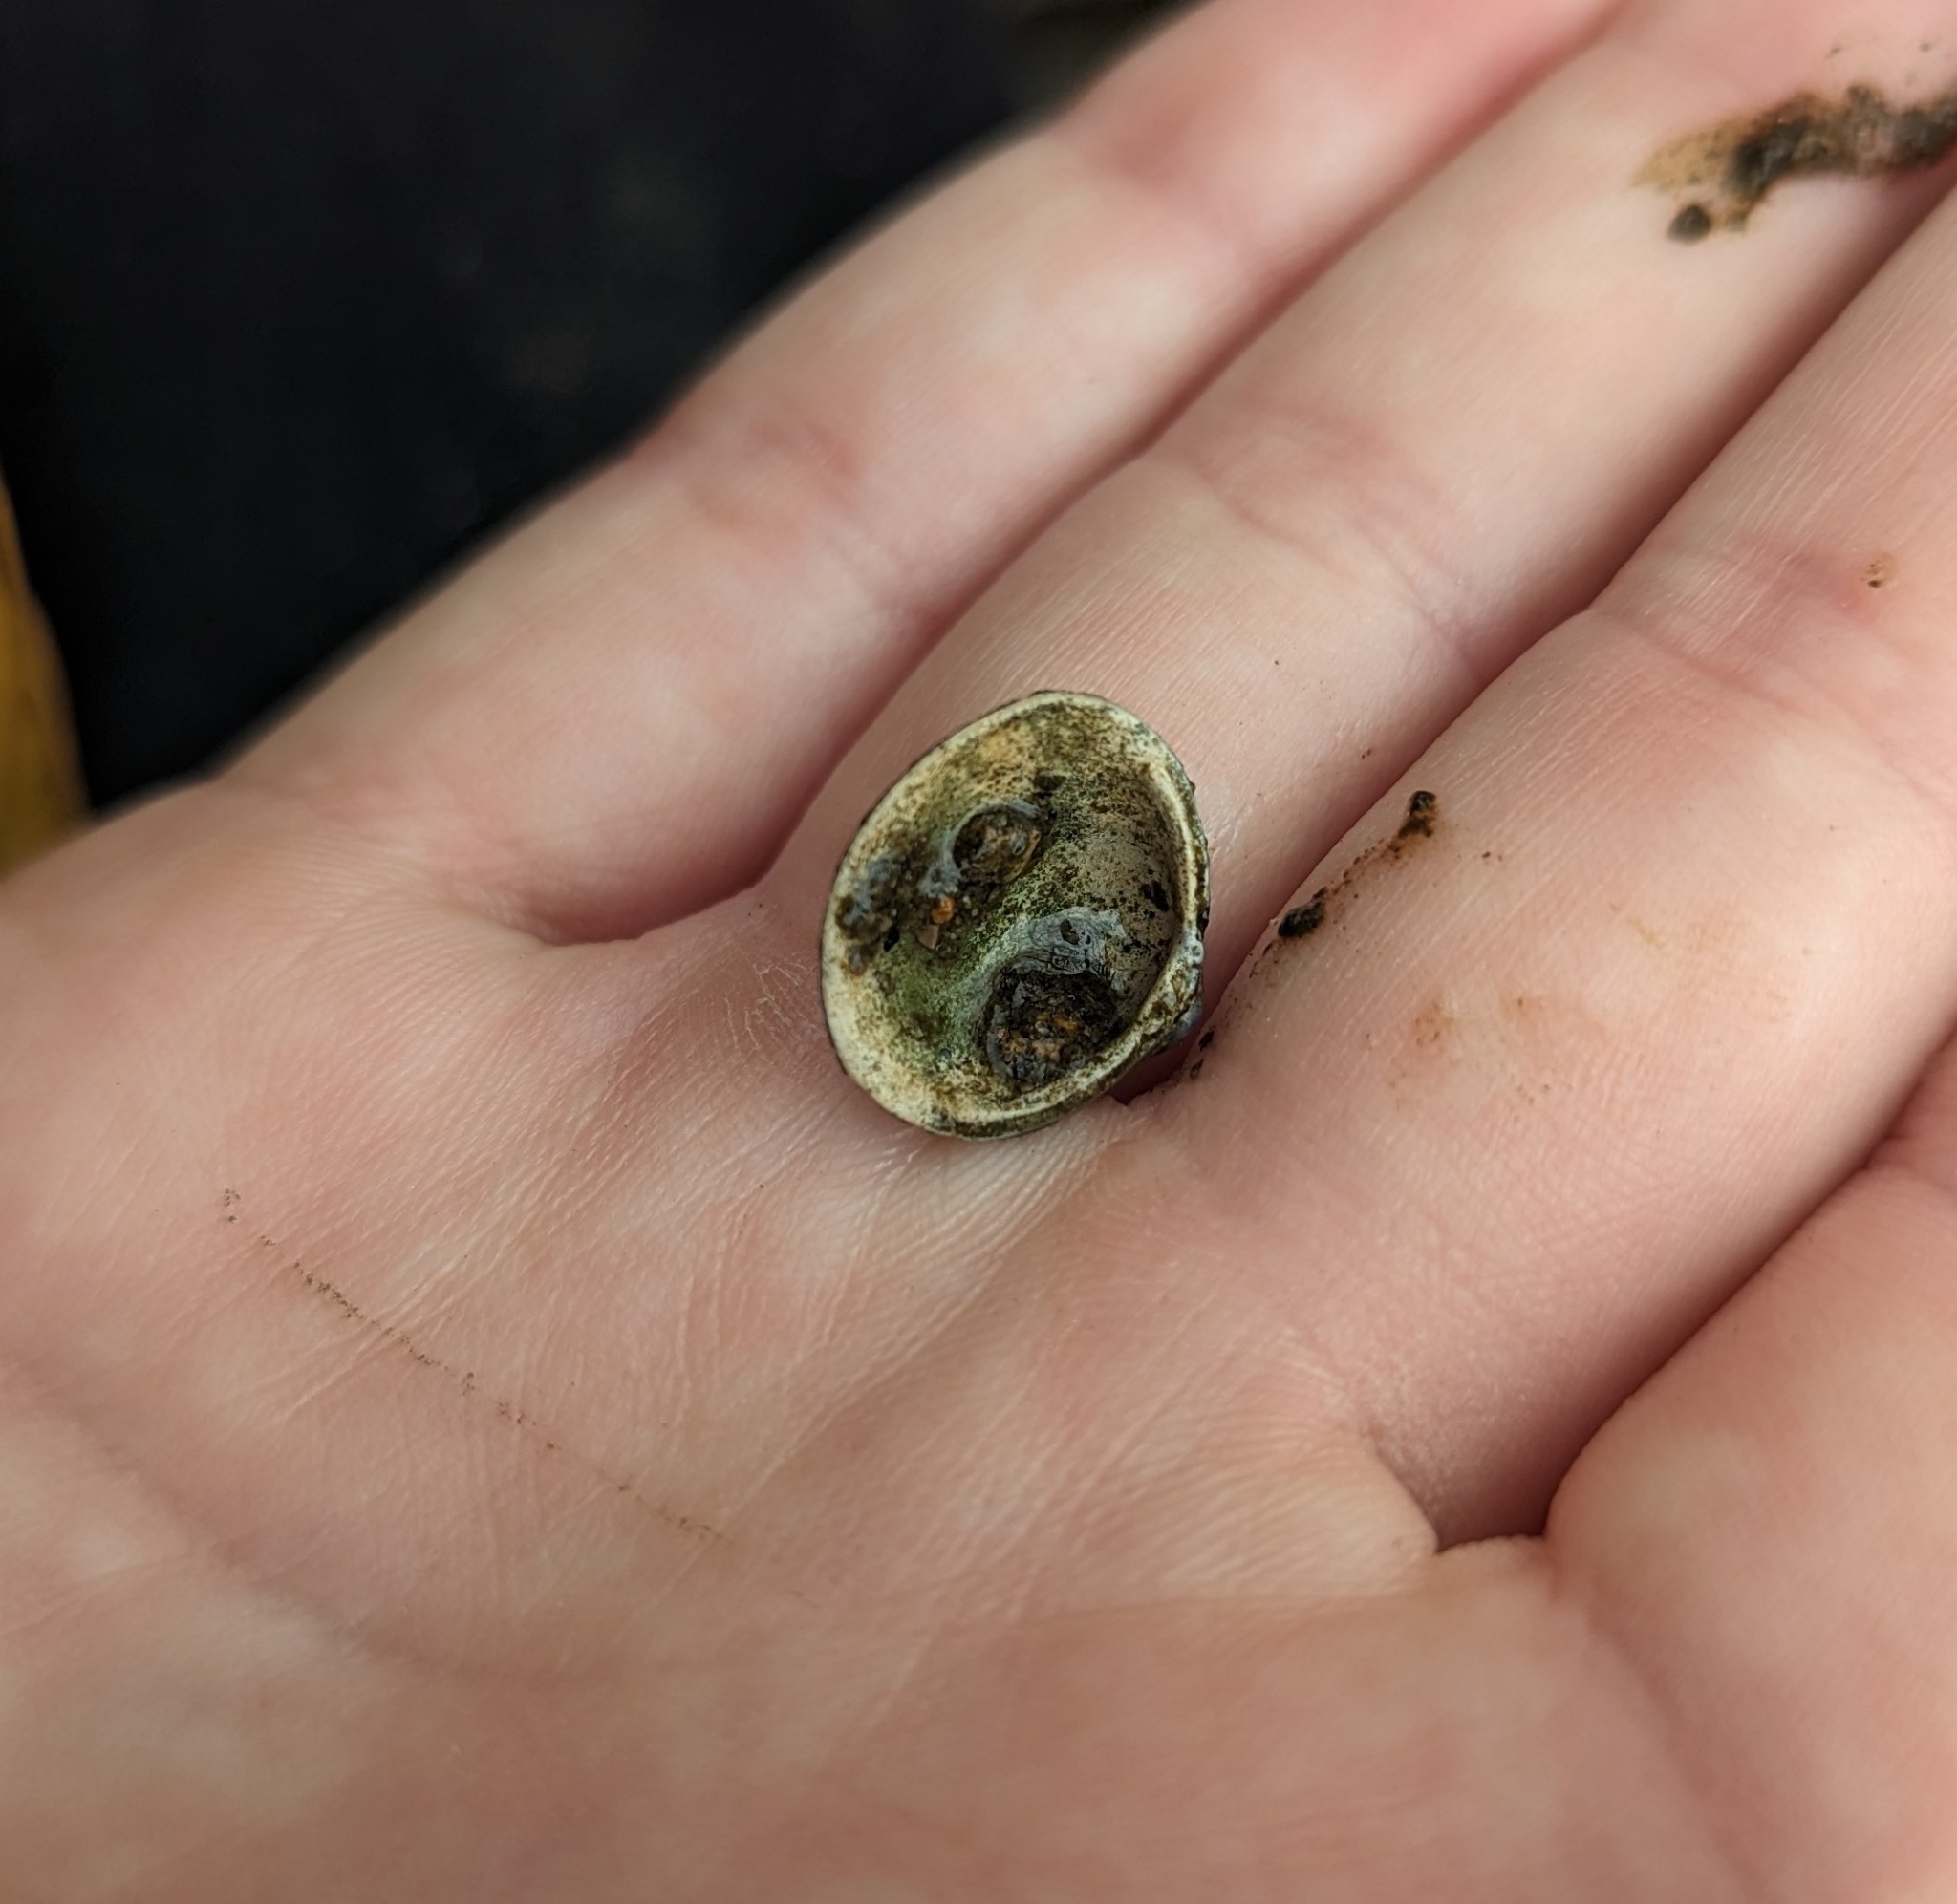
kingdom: Animalia
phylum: Mollusca
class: Bivalvia
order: Venerida
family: Cyrenidae
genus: Corbicula
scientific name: Corbicula fluminea
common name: Asian clam
